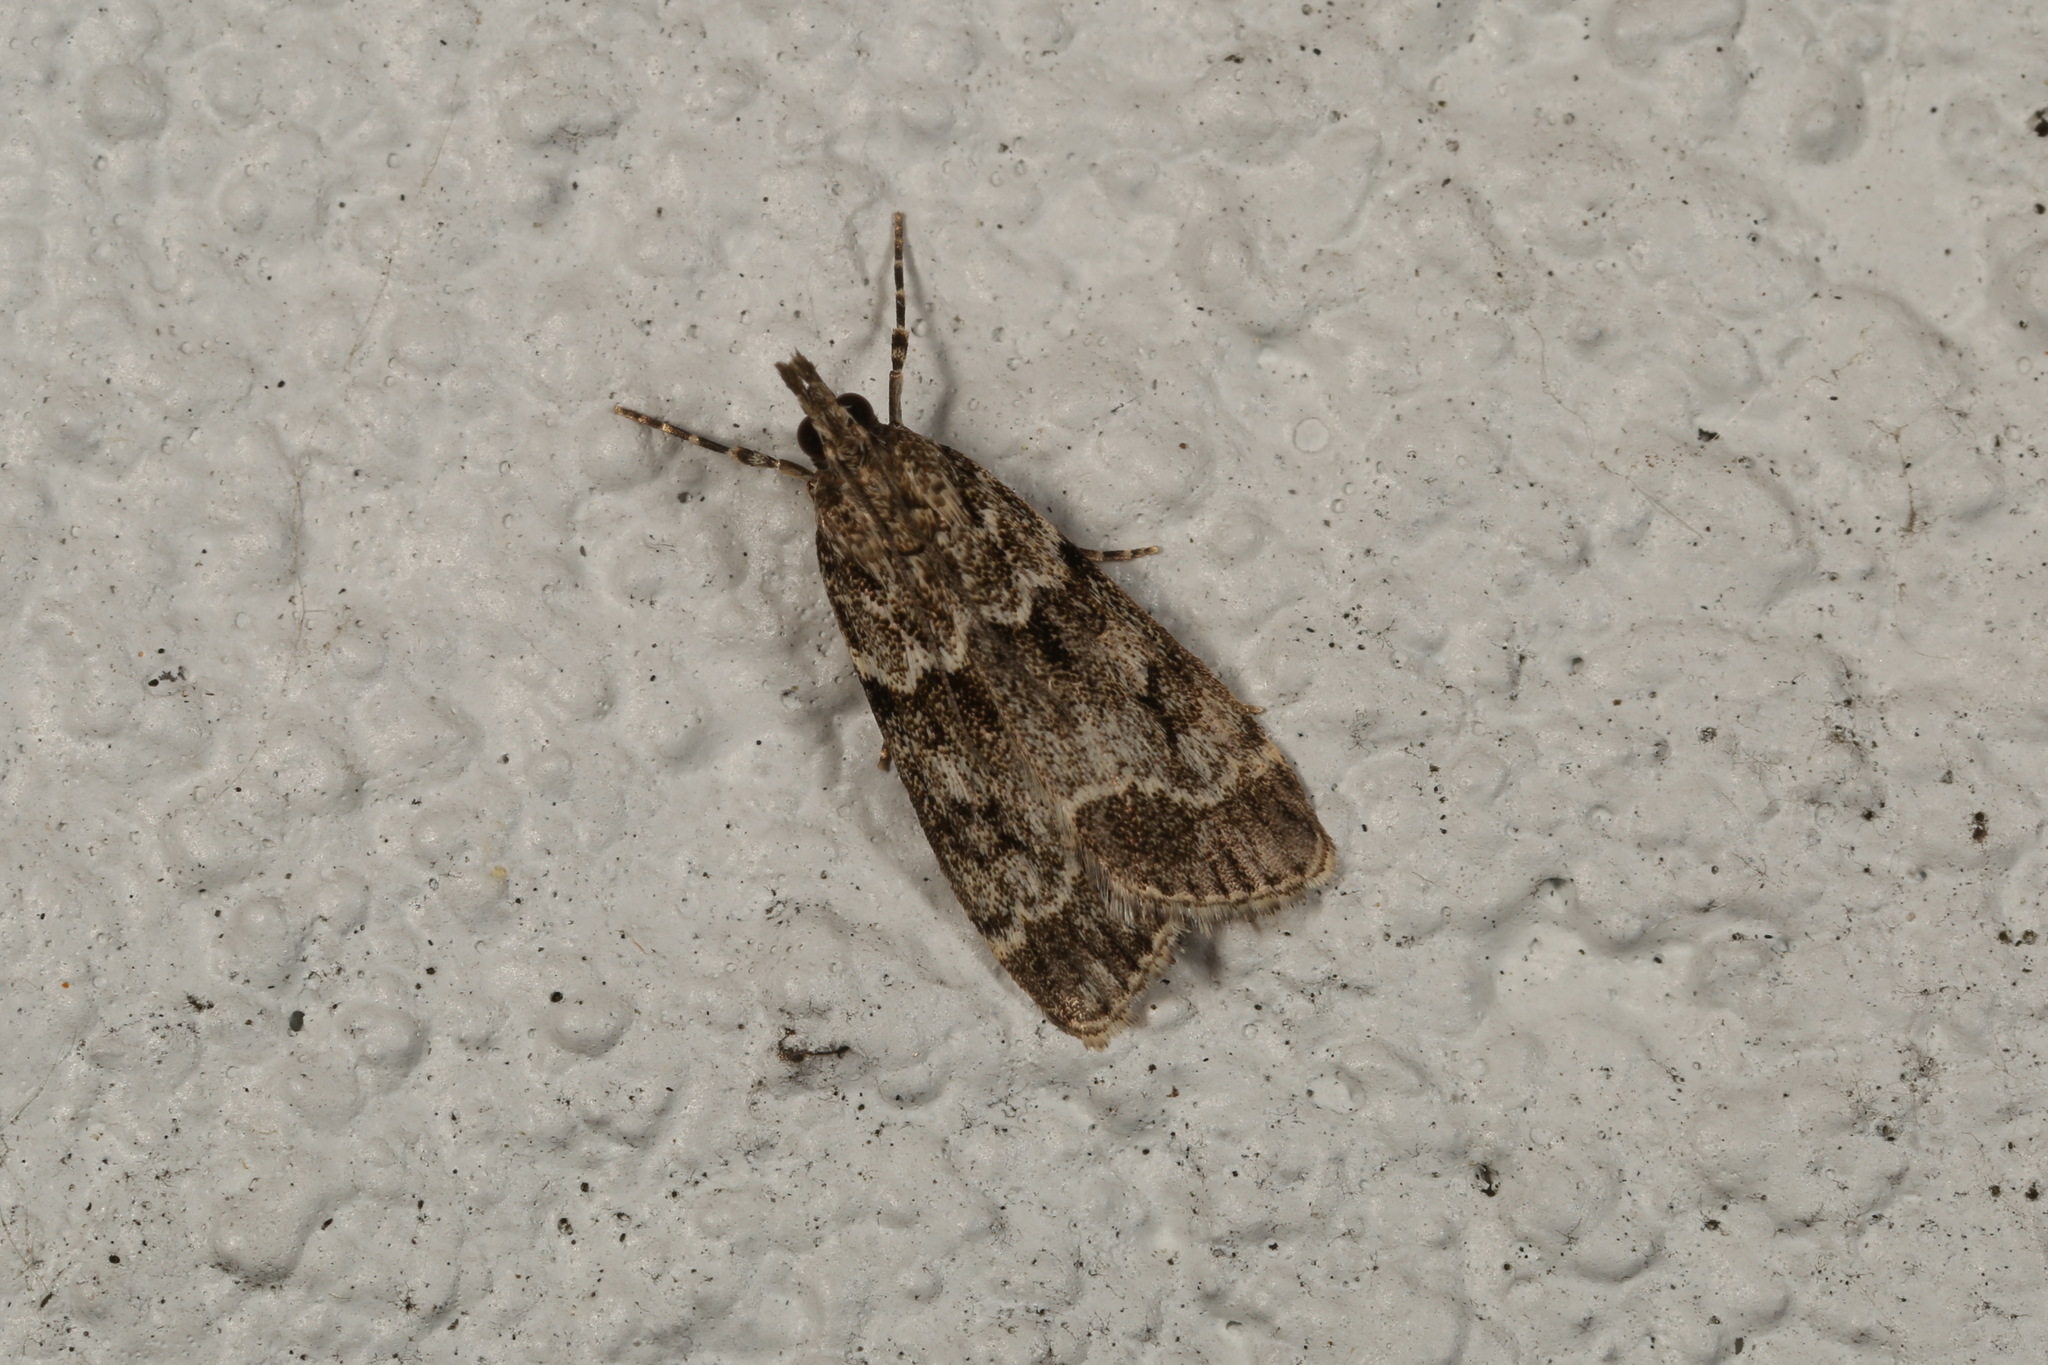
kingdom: Animalia
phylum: Arthropoda
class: Insecta
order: Lepidoptera
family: Crambidae
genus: Eudonia
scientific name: Eudonia mercurella
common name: Small grey
